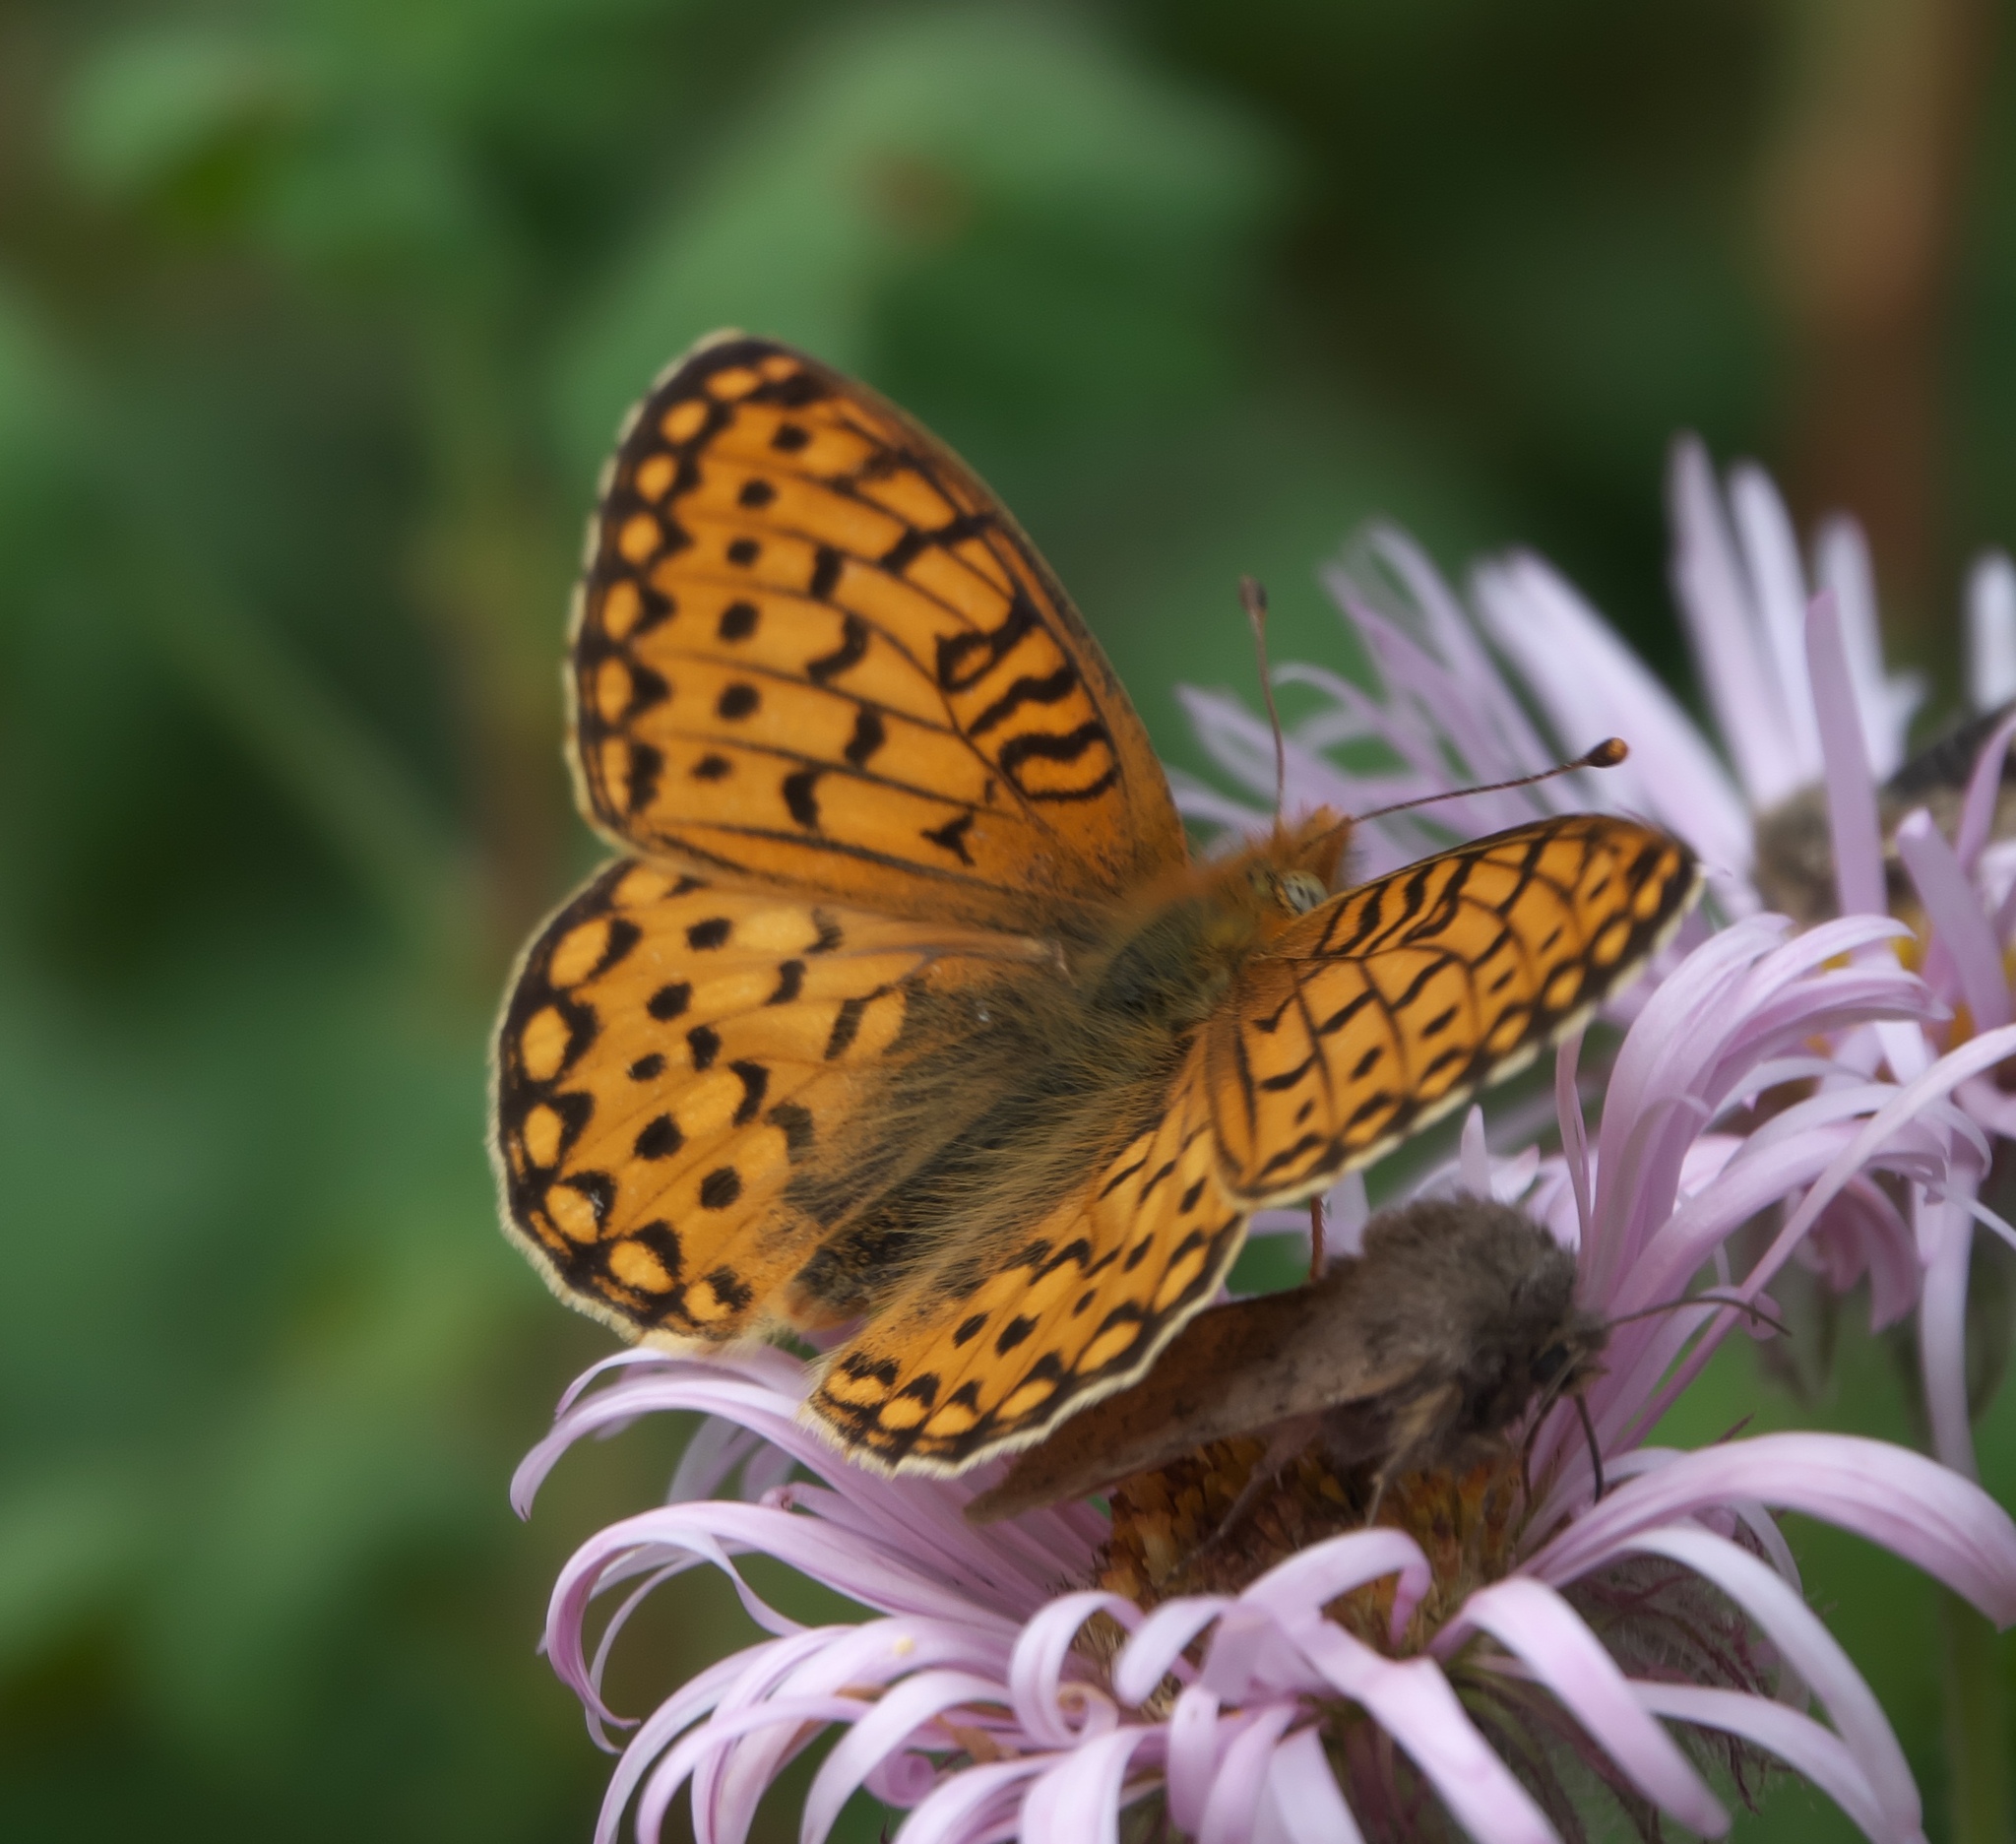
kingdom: Animalia
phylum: Arthropoda
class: Insecta
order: Lepidoptera
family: Nymphalidae
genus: Speyeria
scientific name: Speyeria mormonia
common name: Mormon fritillary
